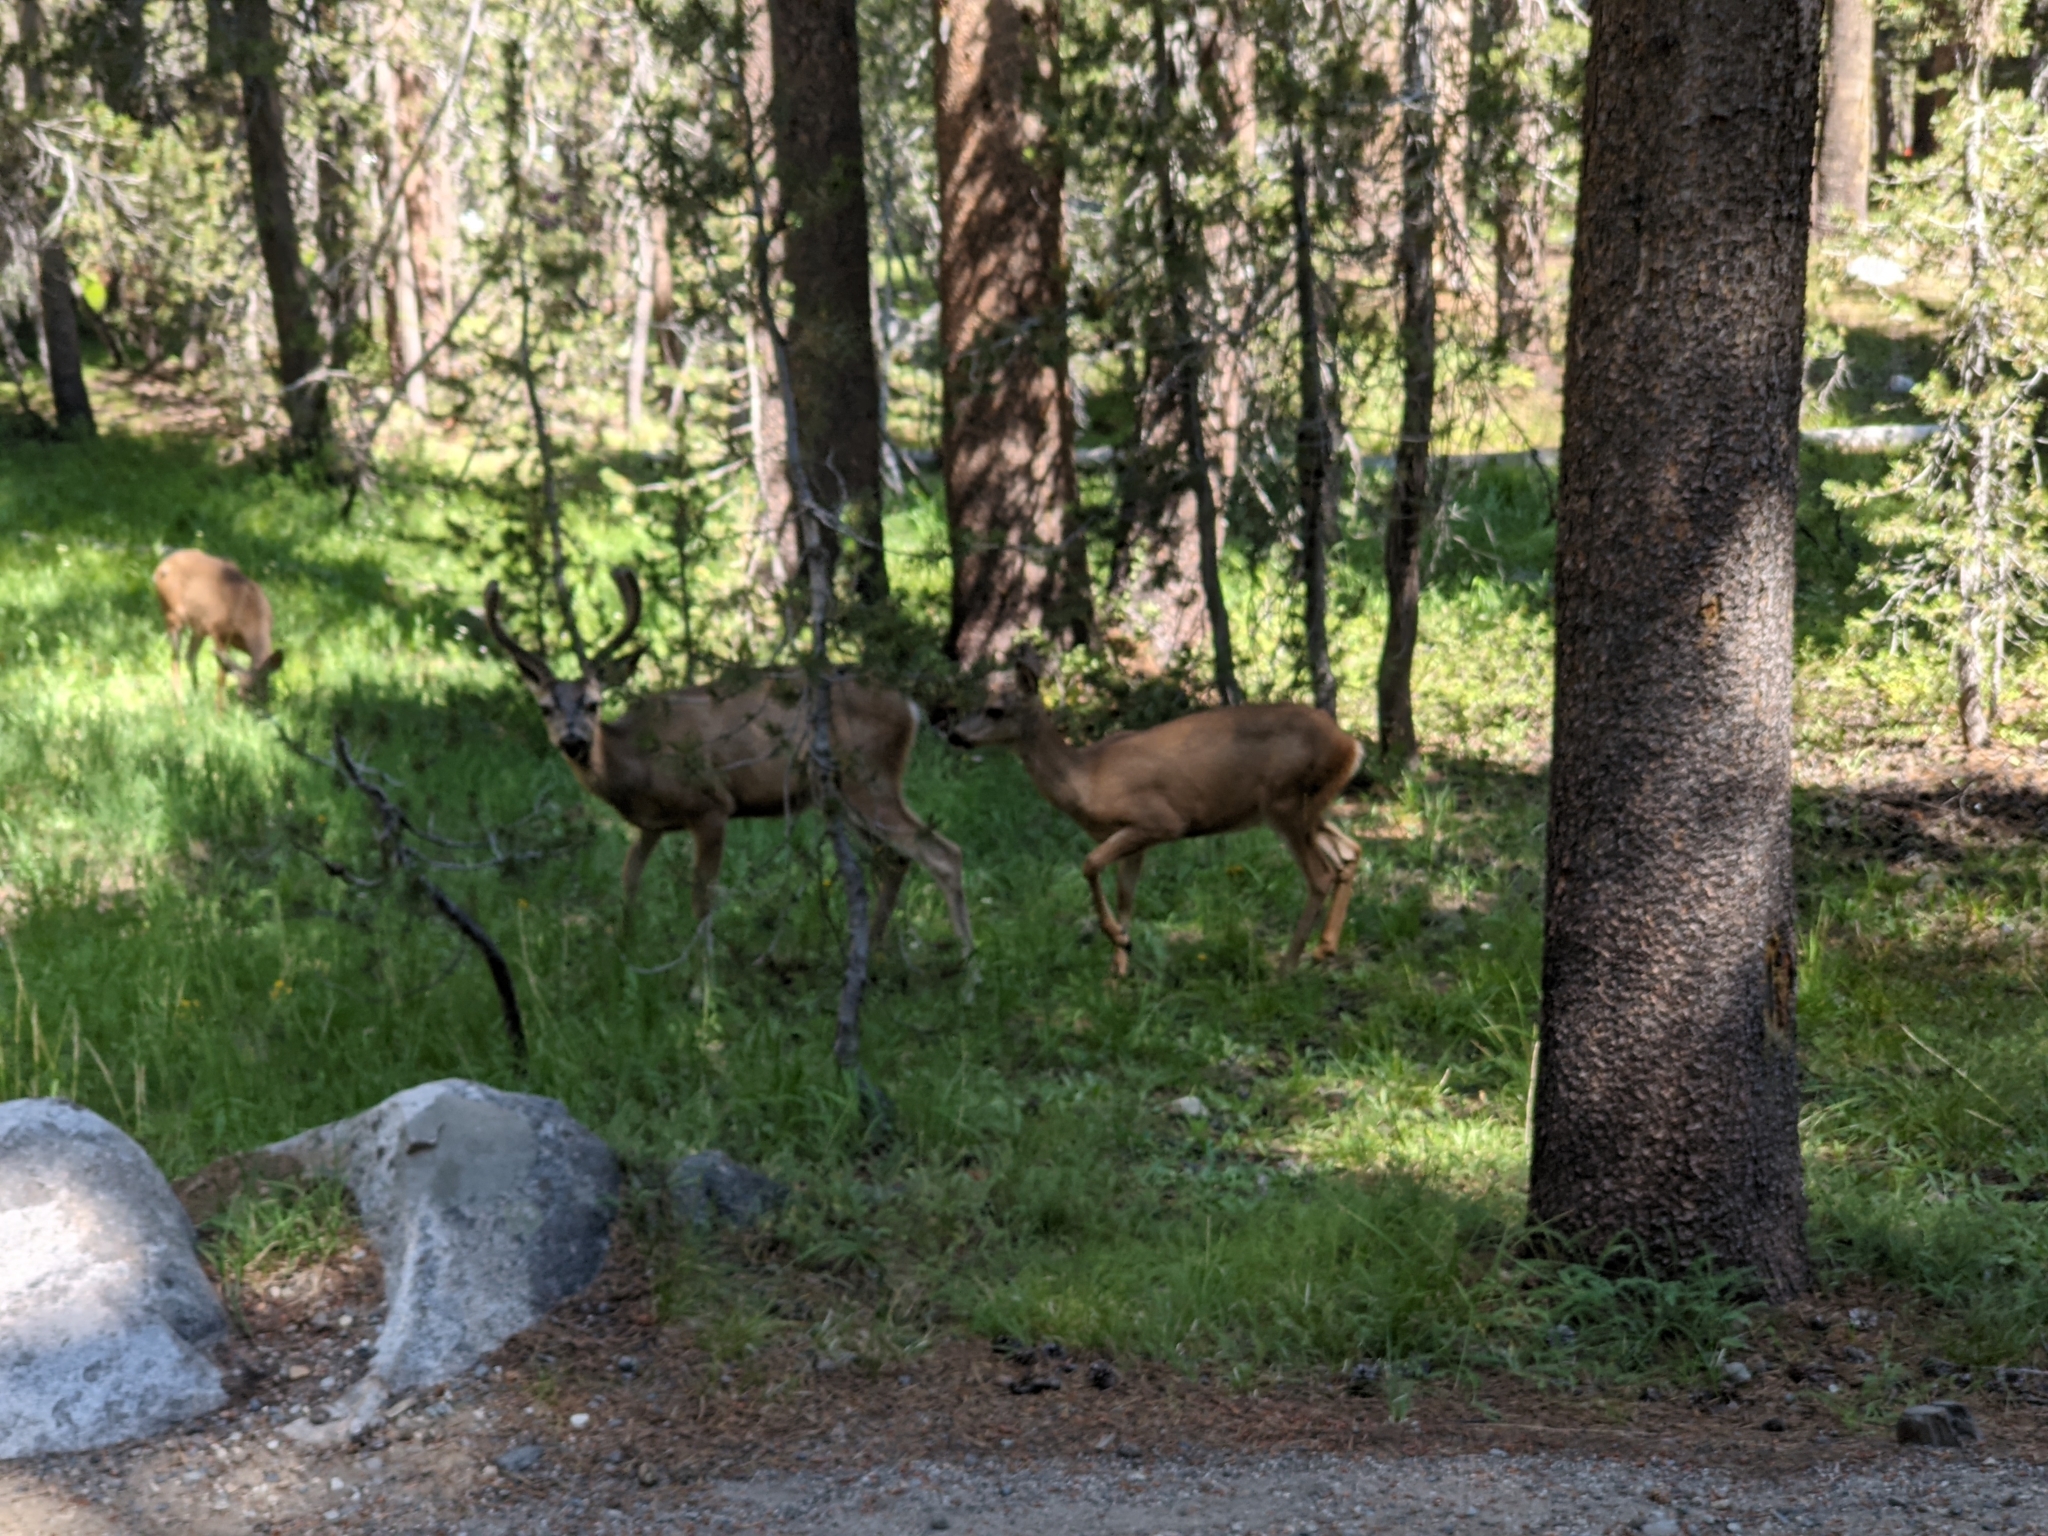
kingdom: Animalia
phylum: Chordata
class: Mammalia
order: Artiodactyla
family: Cervidae
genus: Odocoileus
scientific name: Odocoileus hemionus
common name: Mule deer
